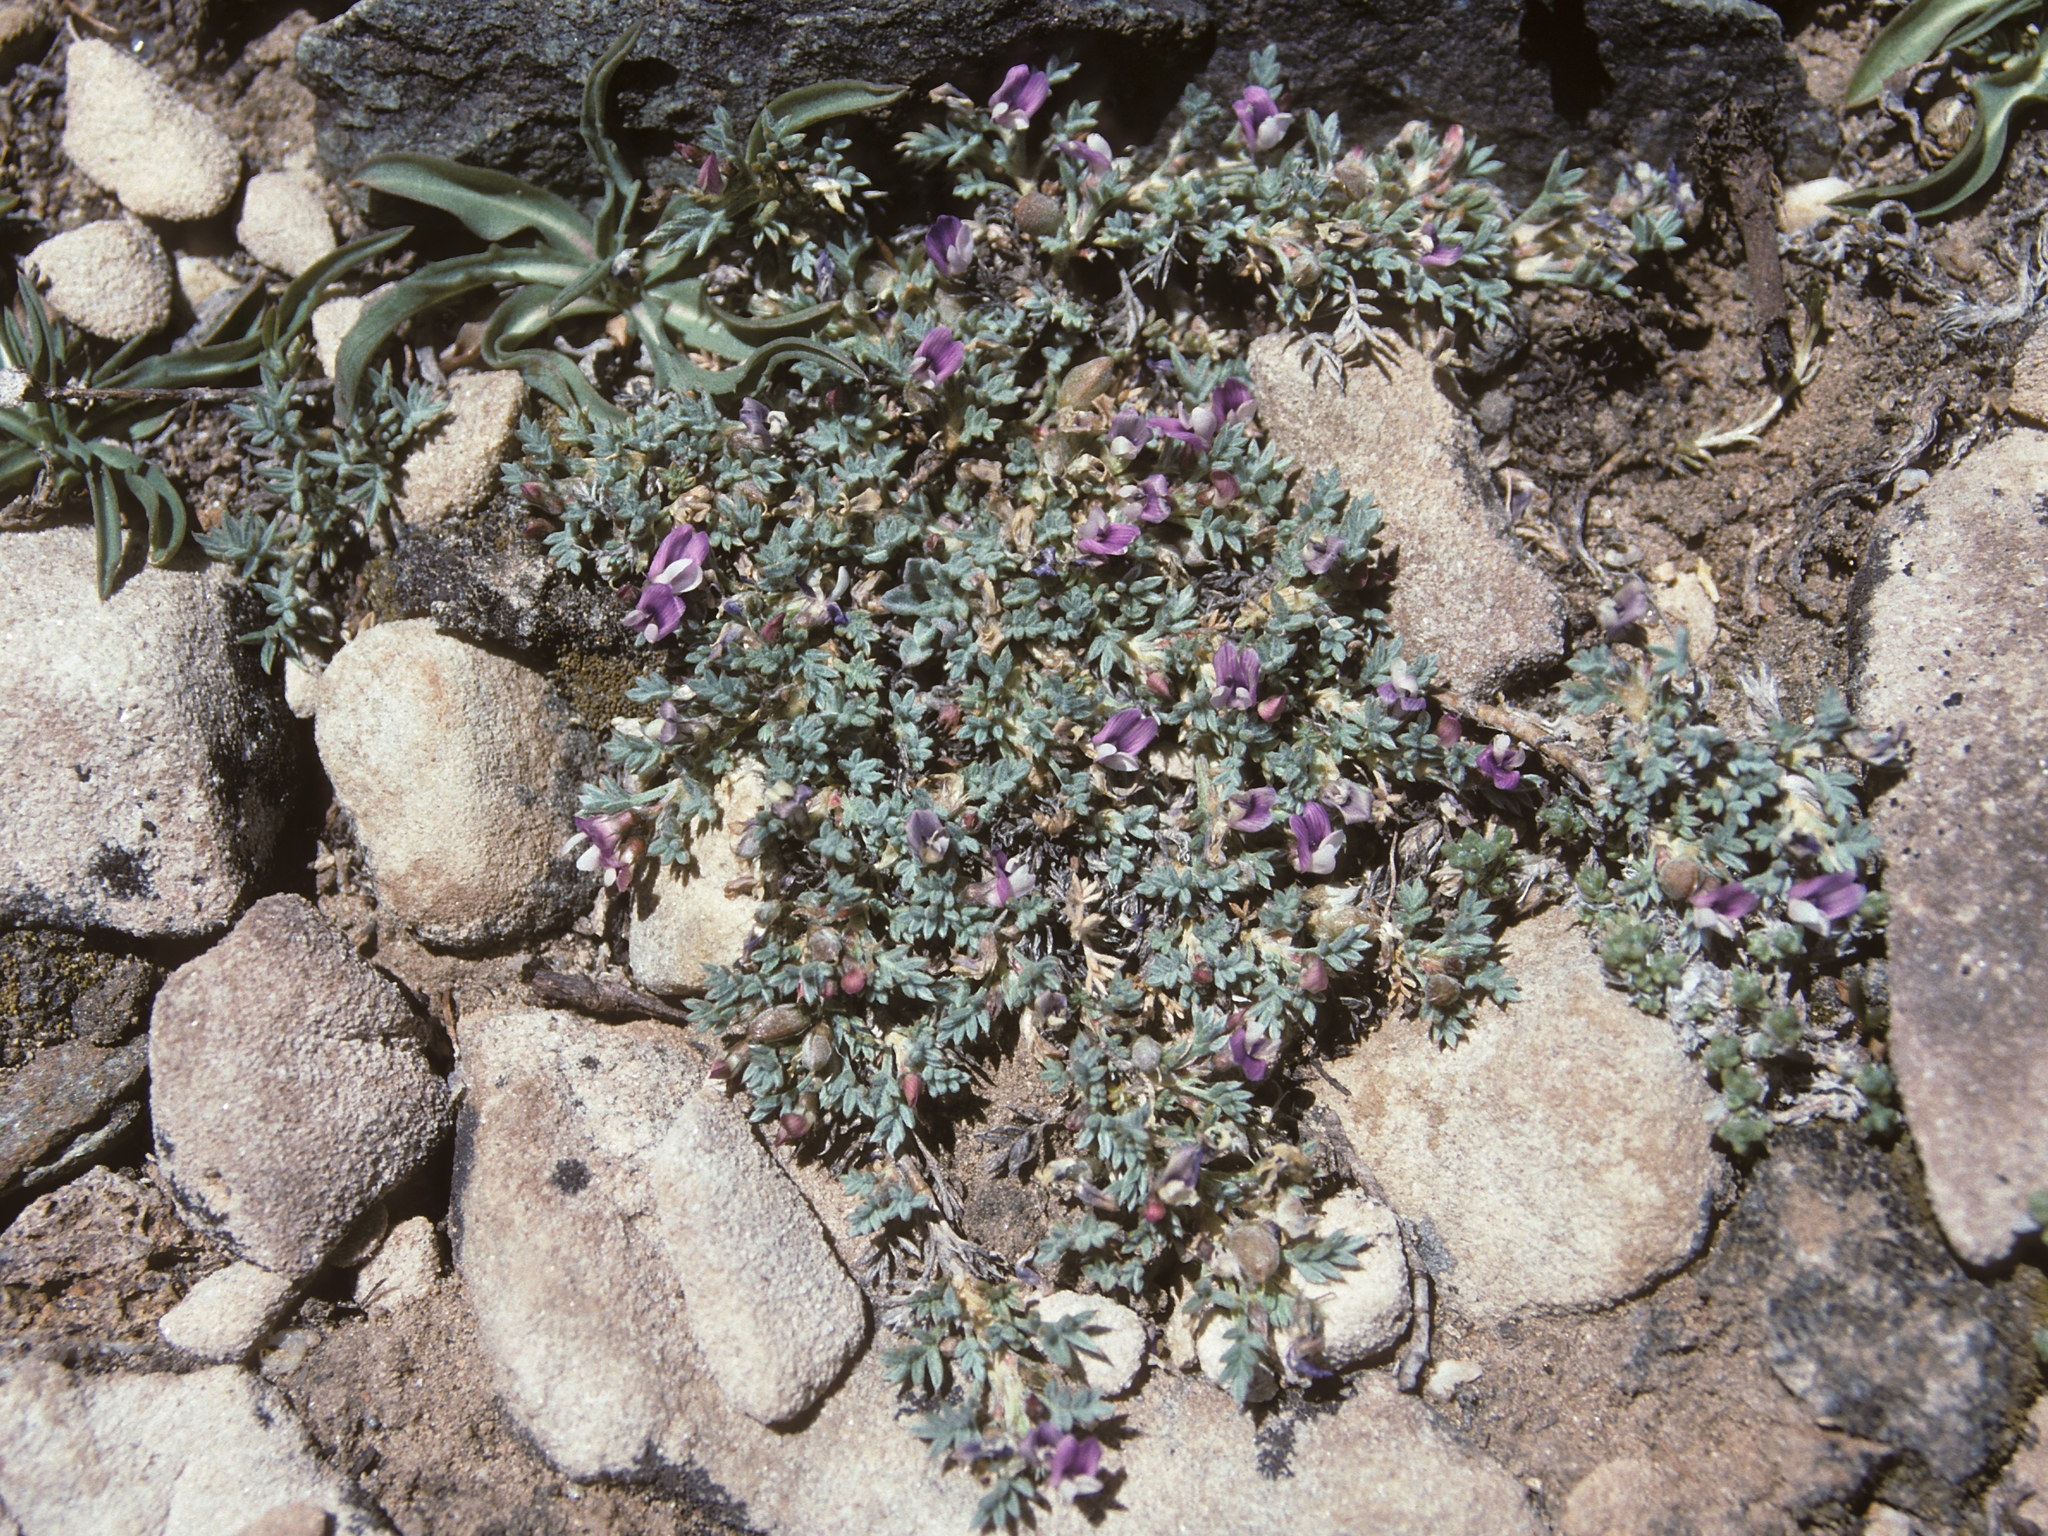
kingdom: Plantae
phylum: Tracheophyta
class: Magnoliopsida
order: Fabales
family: Fabaceae
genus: Astragalus
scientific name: Astragalus kentrophyta
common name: Prickly milk-vetch
